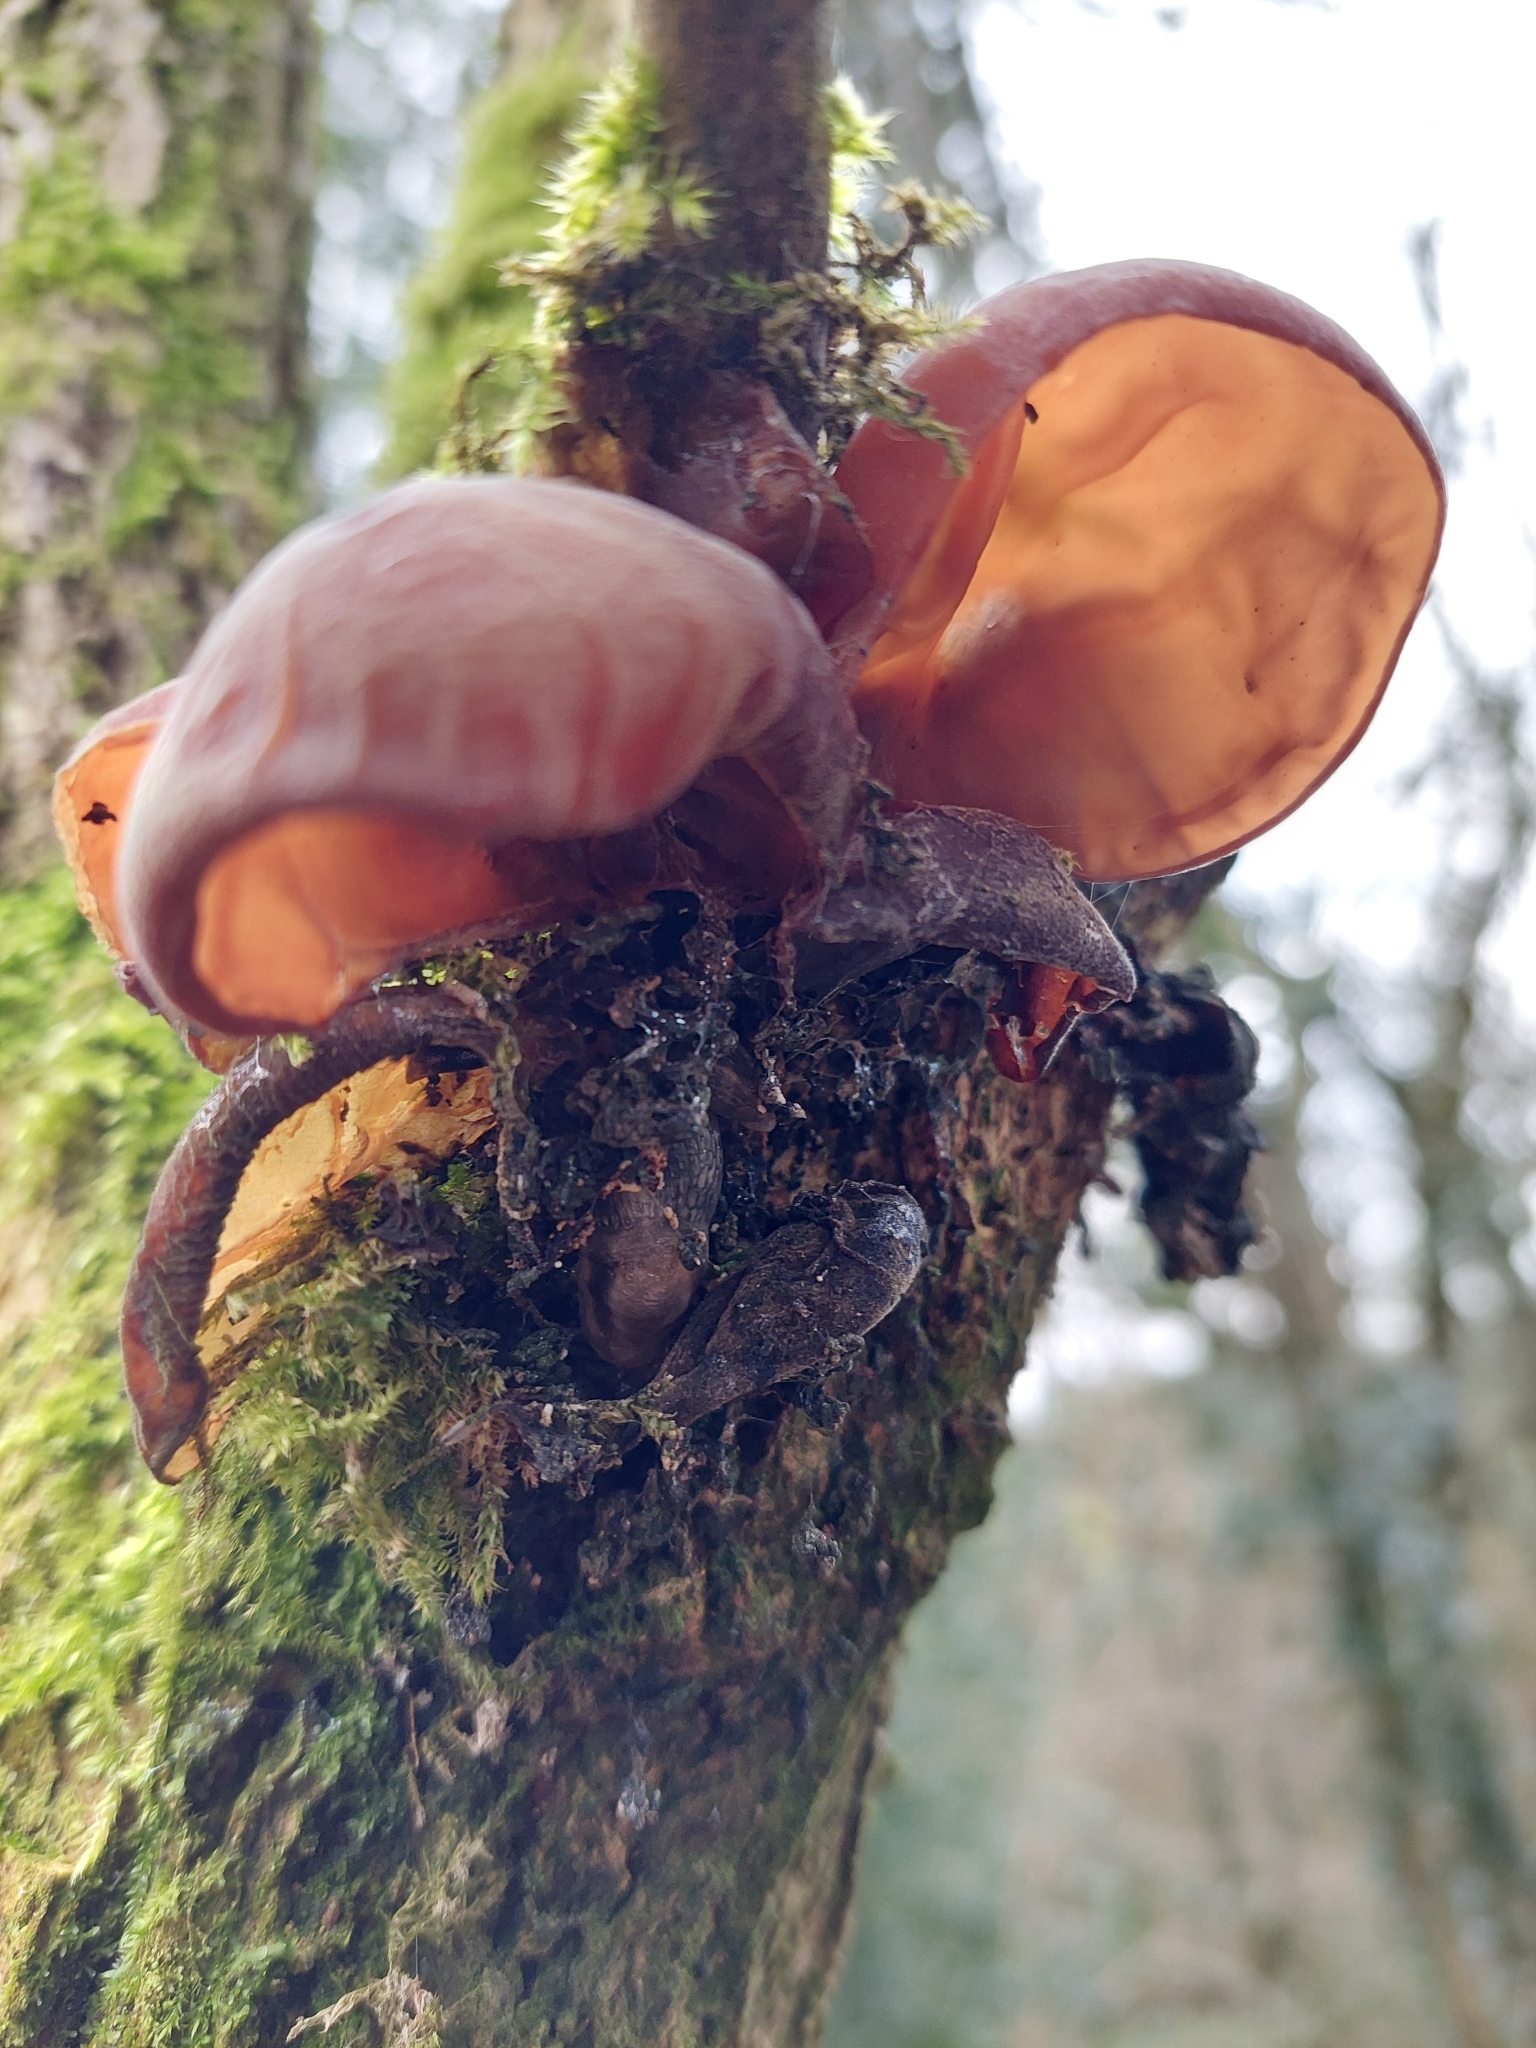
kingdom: Fungi
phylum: Basidiomycota
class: Agaricomycetes
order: Auriculariales
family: Auriculariaceae
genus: Auricularia
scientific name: Auricularia auricula-judae
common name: Jelly ear
